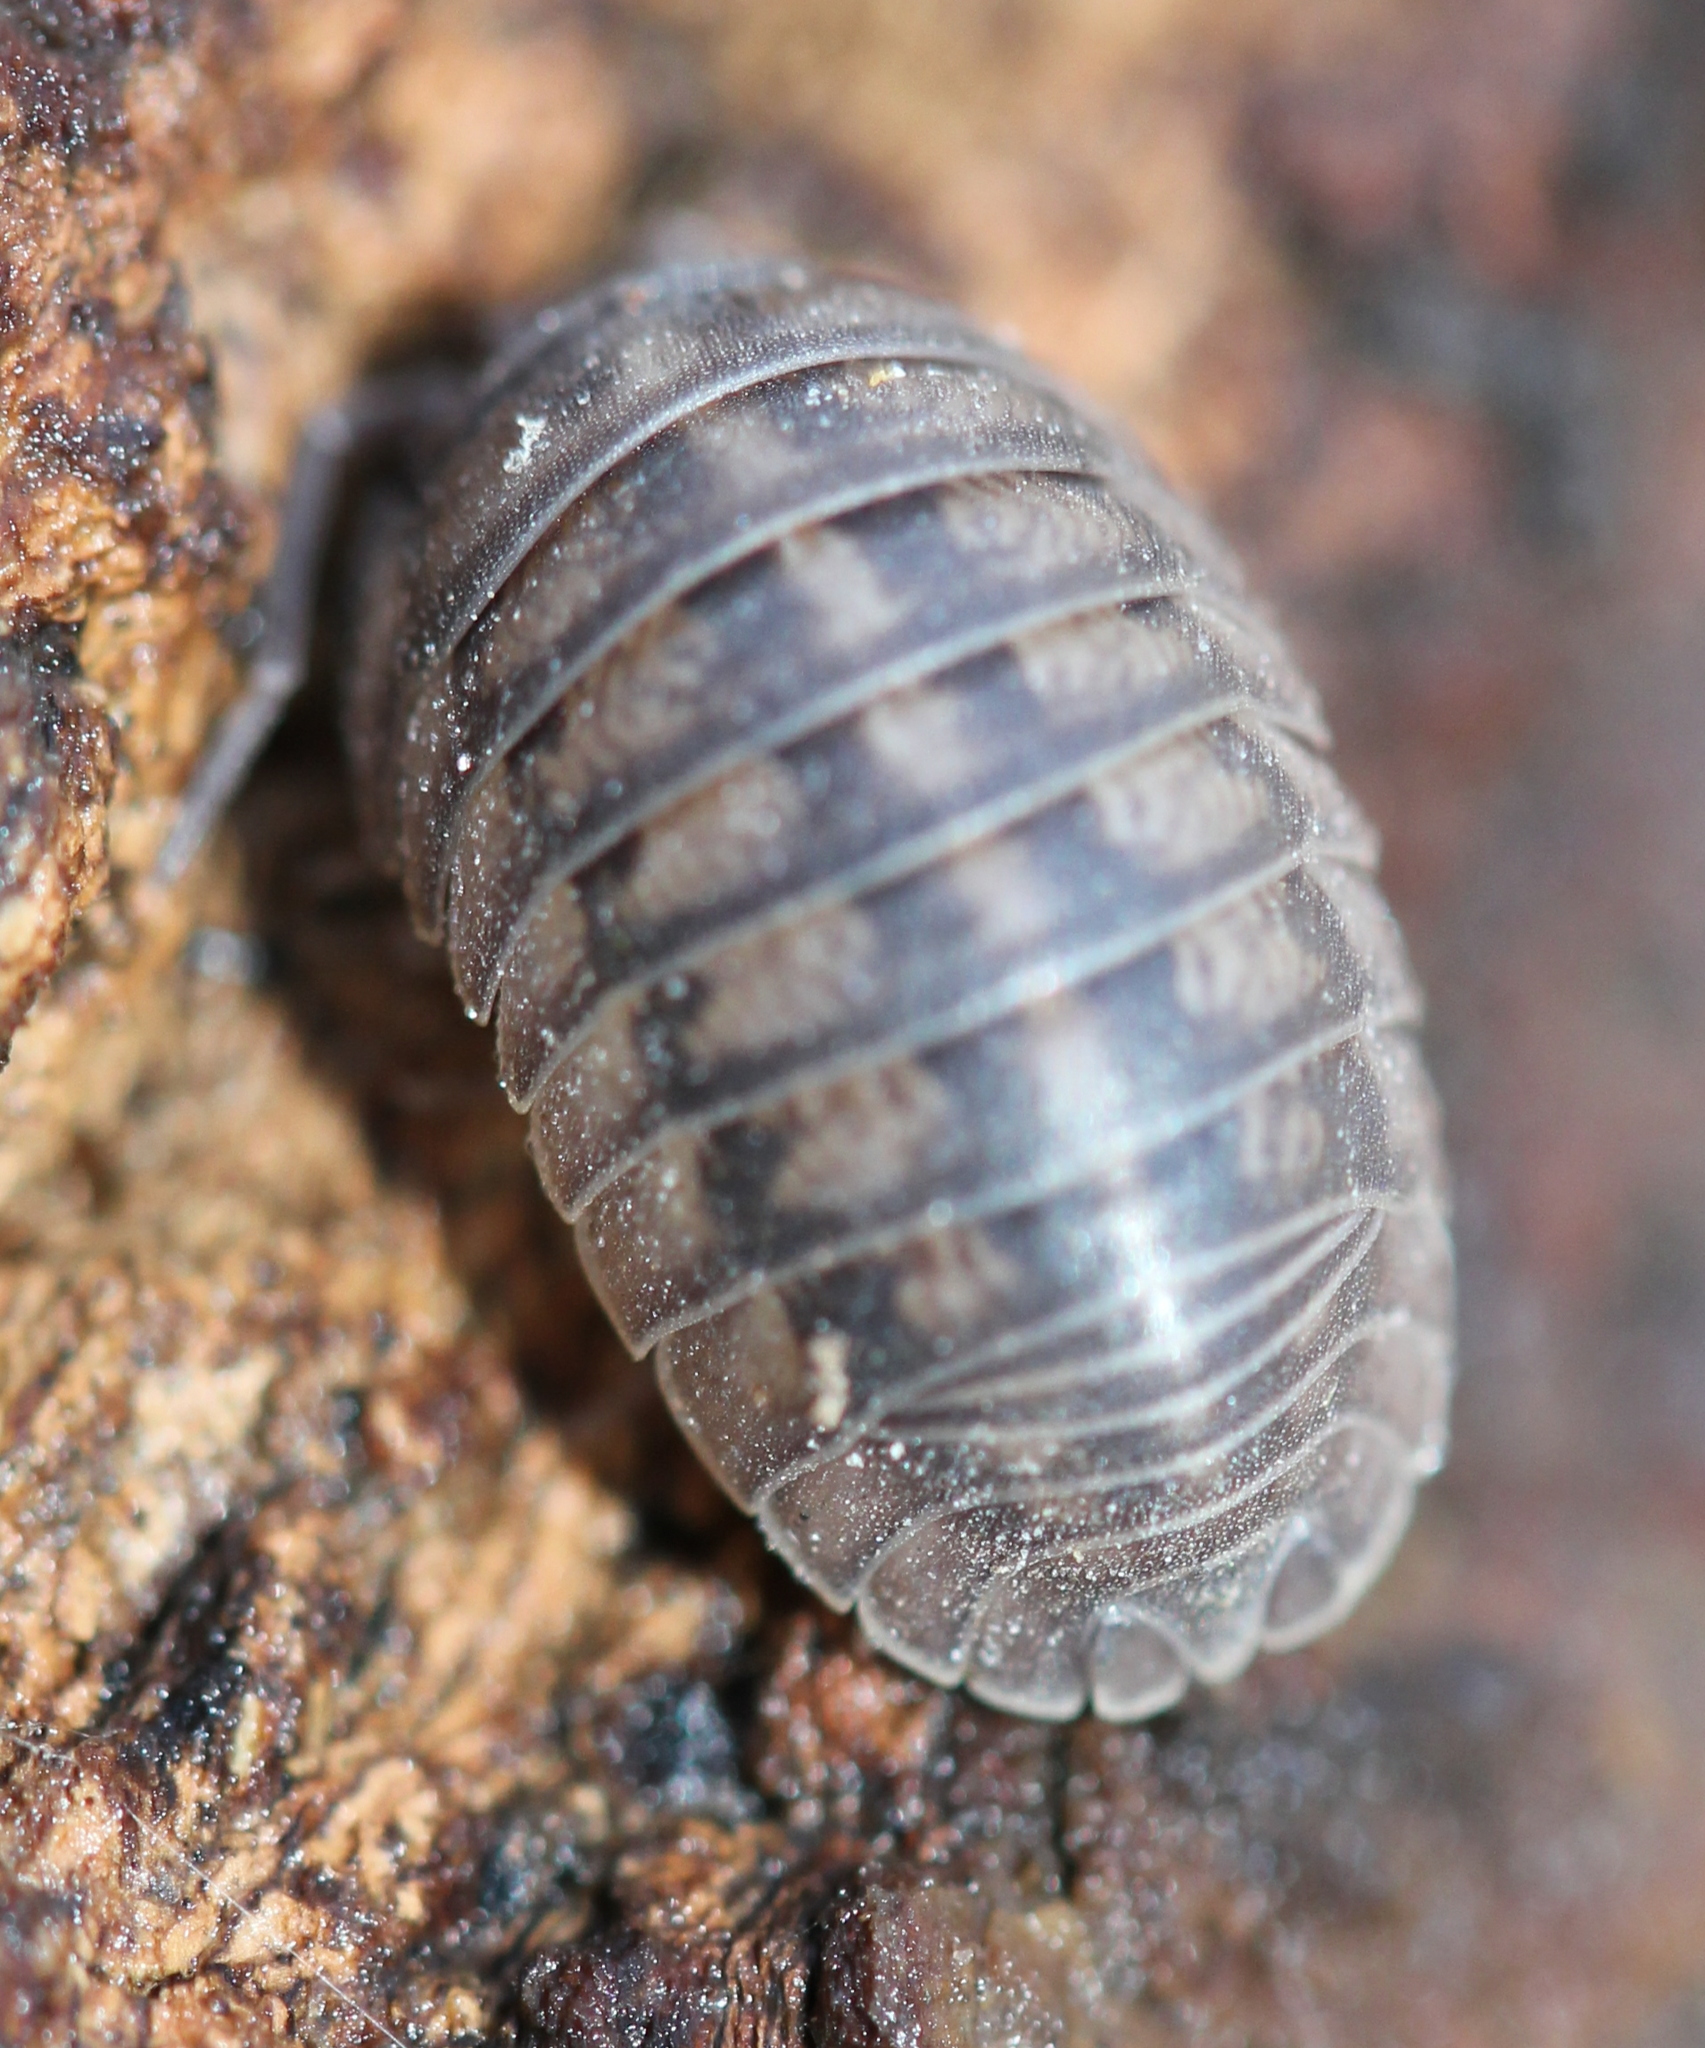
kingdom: Animalia
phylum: Arthropoda
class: Malacostraca
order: Isopoda
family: Armadillidiidae
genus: Armadillidium
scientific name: Armadillidium nasatum
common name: Isopod
